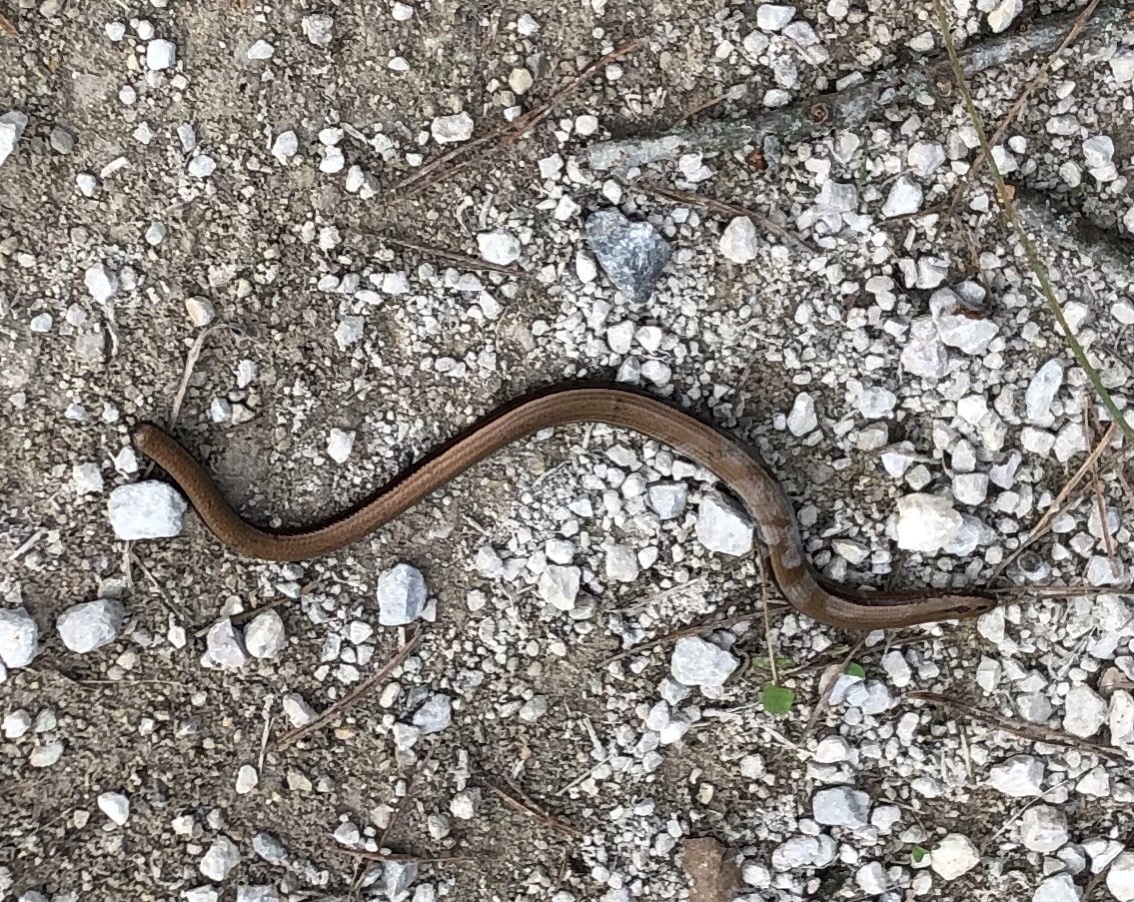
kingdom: Animalia
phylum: Chordata
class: Squamata
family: Anguidae
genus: Anguis
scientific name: Anguis fragilis
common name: Slow worm
